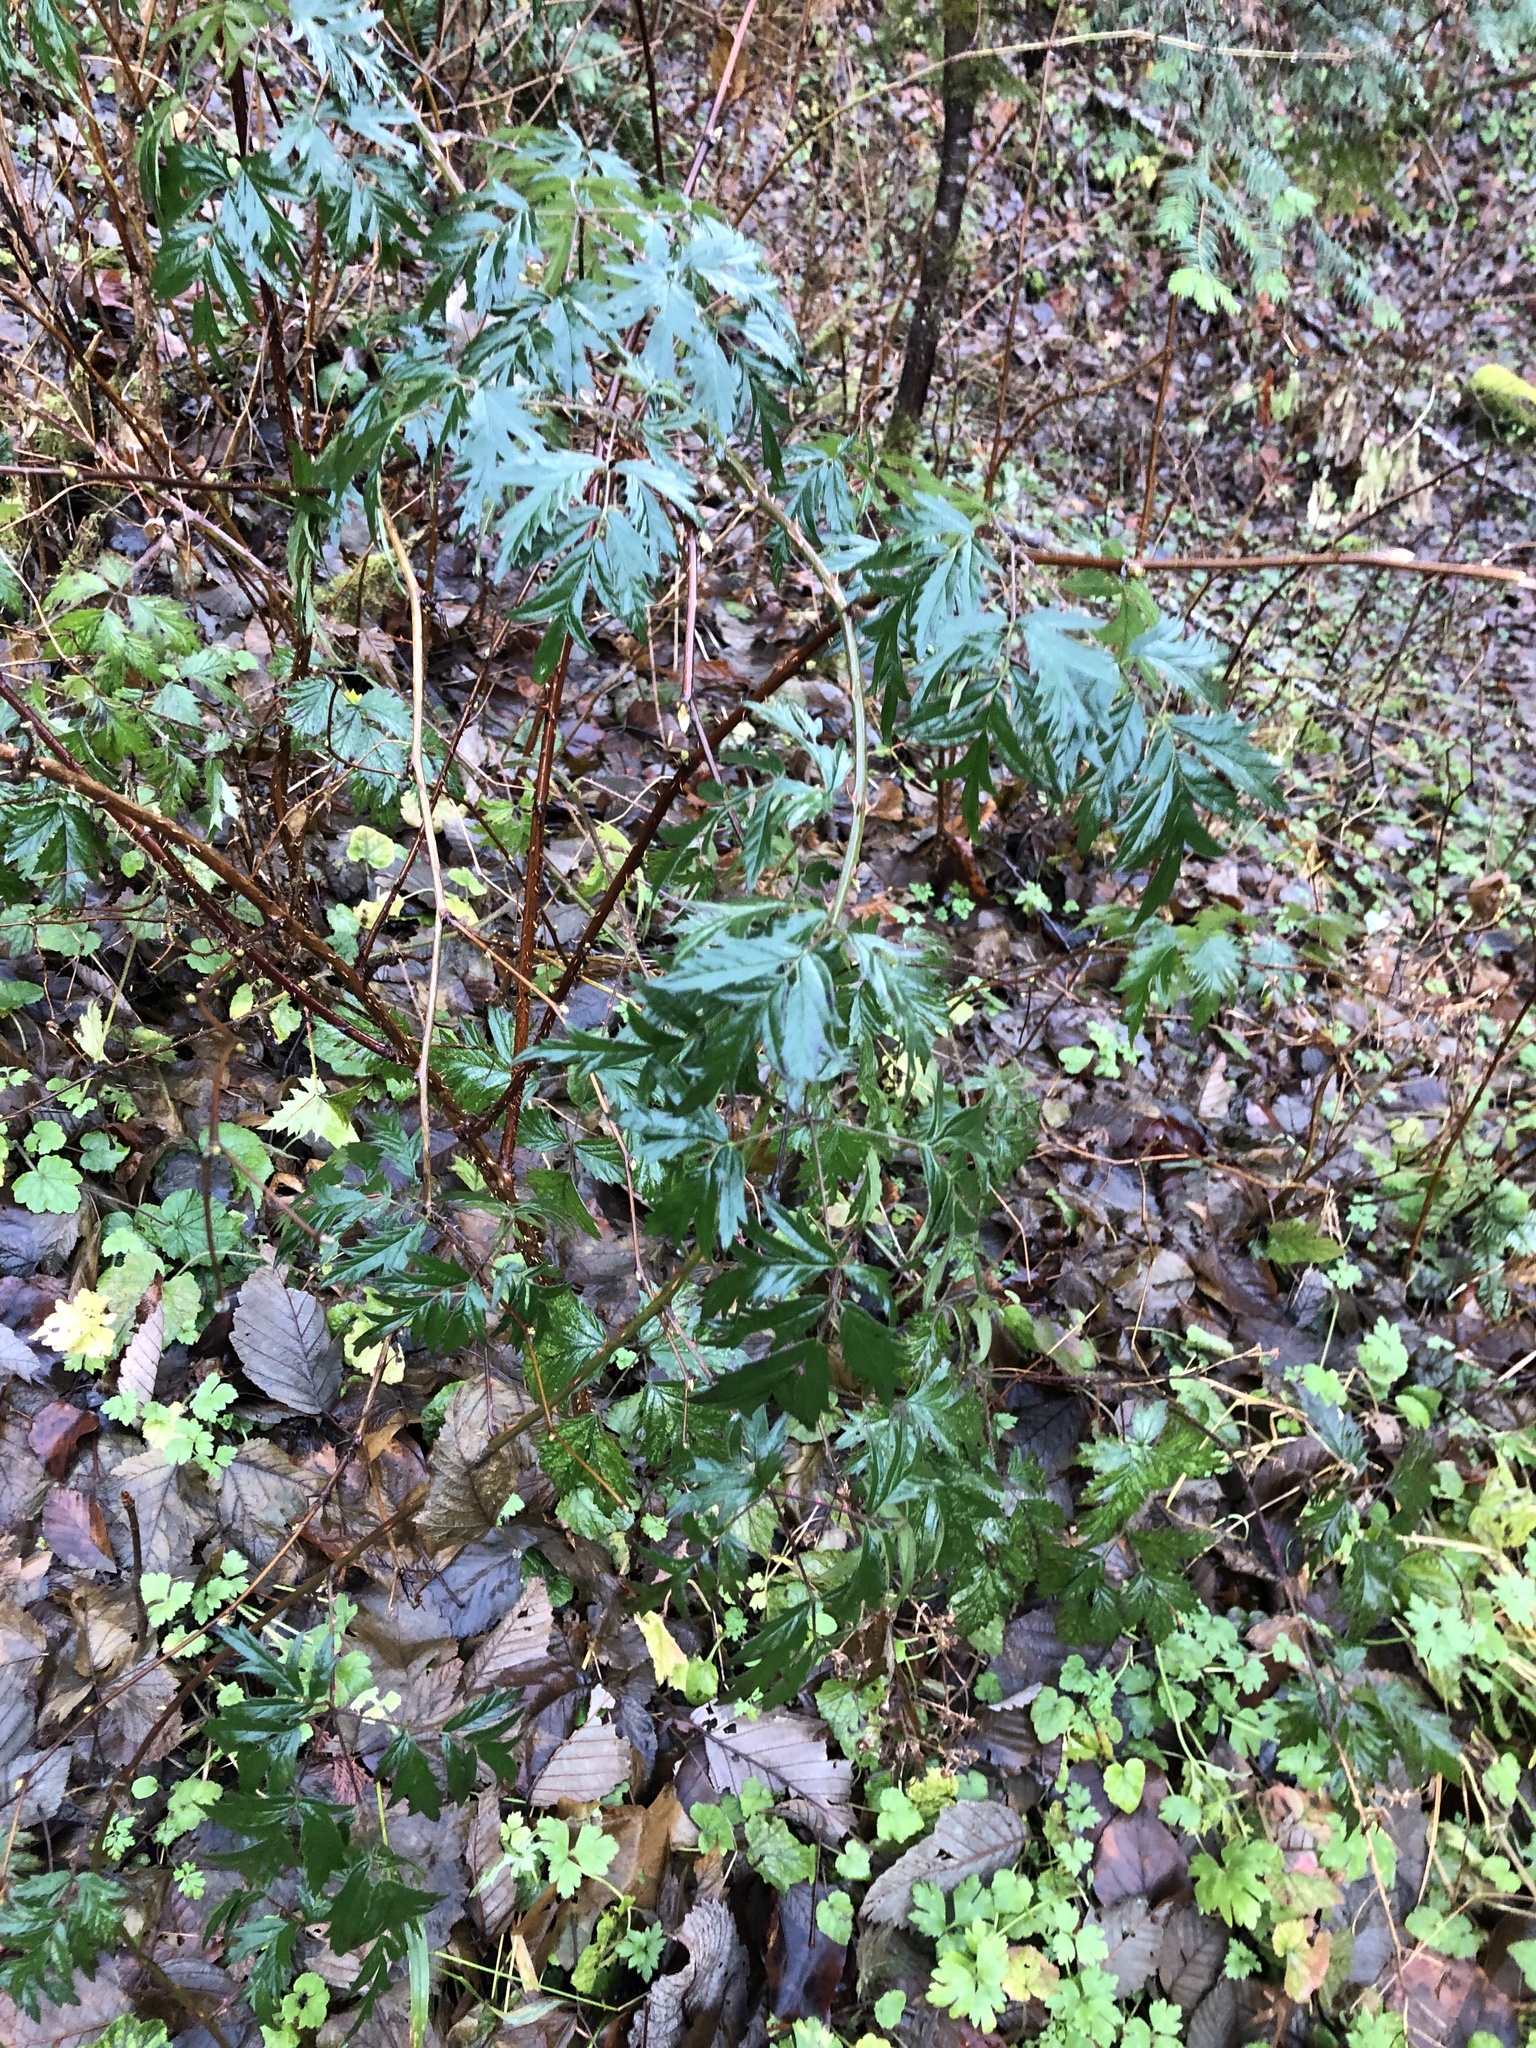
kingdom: Plantae
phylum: Tracheophyta
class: Magnoliopsida
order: Rosales
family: Rosaceae
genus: Rubus
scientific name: Rubus laciniatus
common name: Evergreen blackberry
